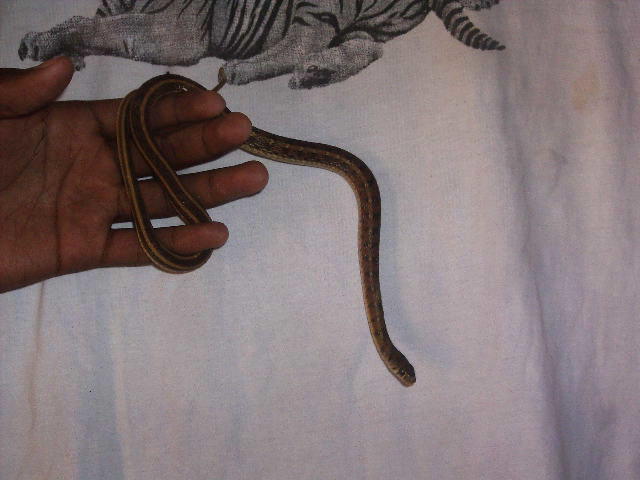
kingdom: Animalia
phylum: Chordata
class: Squamata
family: Colubridae
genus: Amphiesma
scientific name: Amphiesma stolatum
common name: Buff striped keelback
